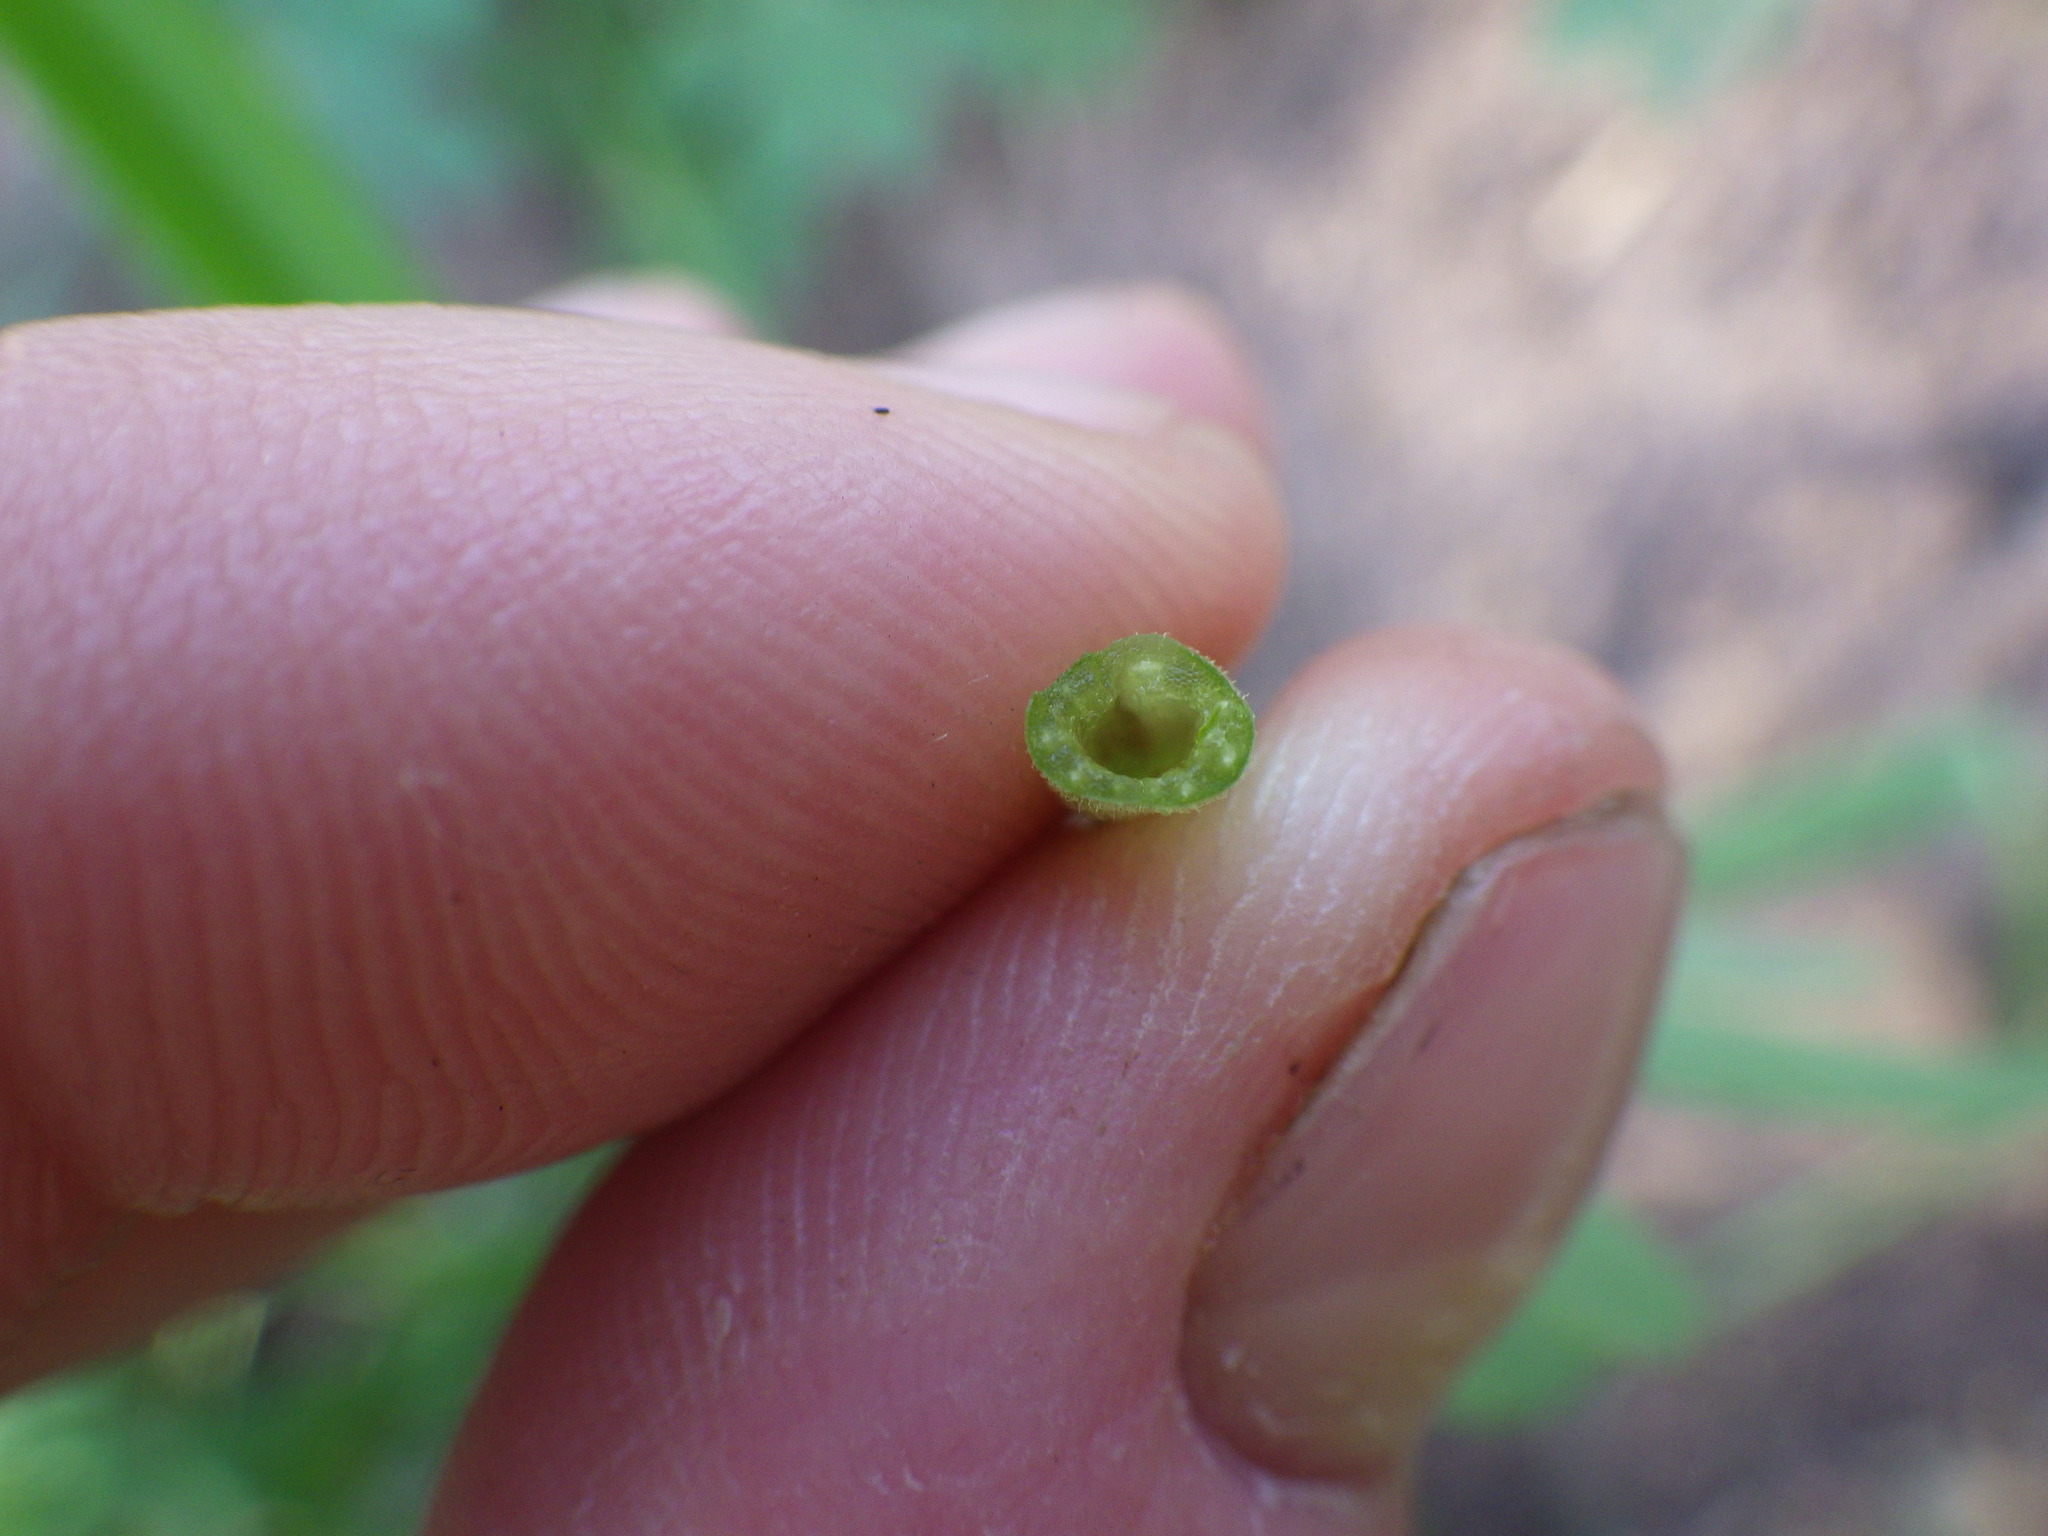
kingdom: Plantae
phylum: Tracheophyta
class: Magnoliopsida
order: Fabales
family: Fabaceae
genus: Lupinus
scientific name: Lupinus succulentus
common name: Arroyo lupine
